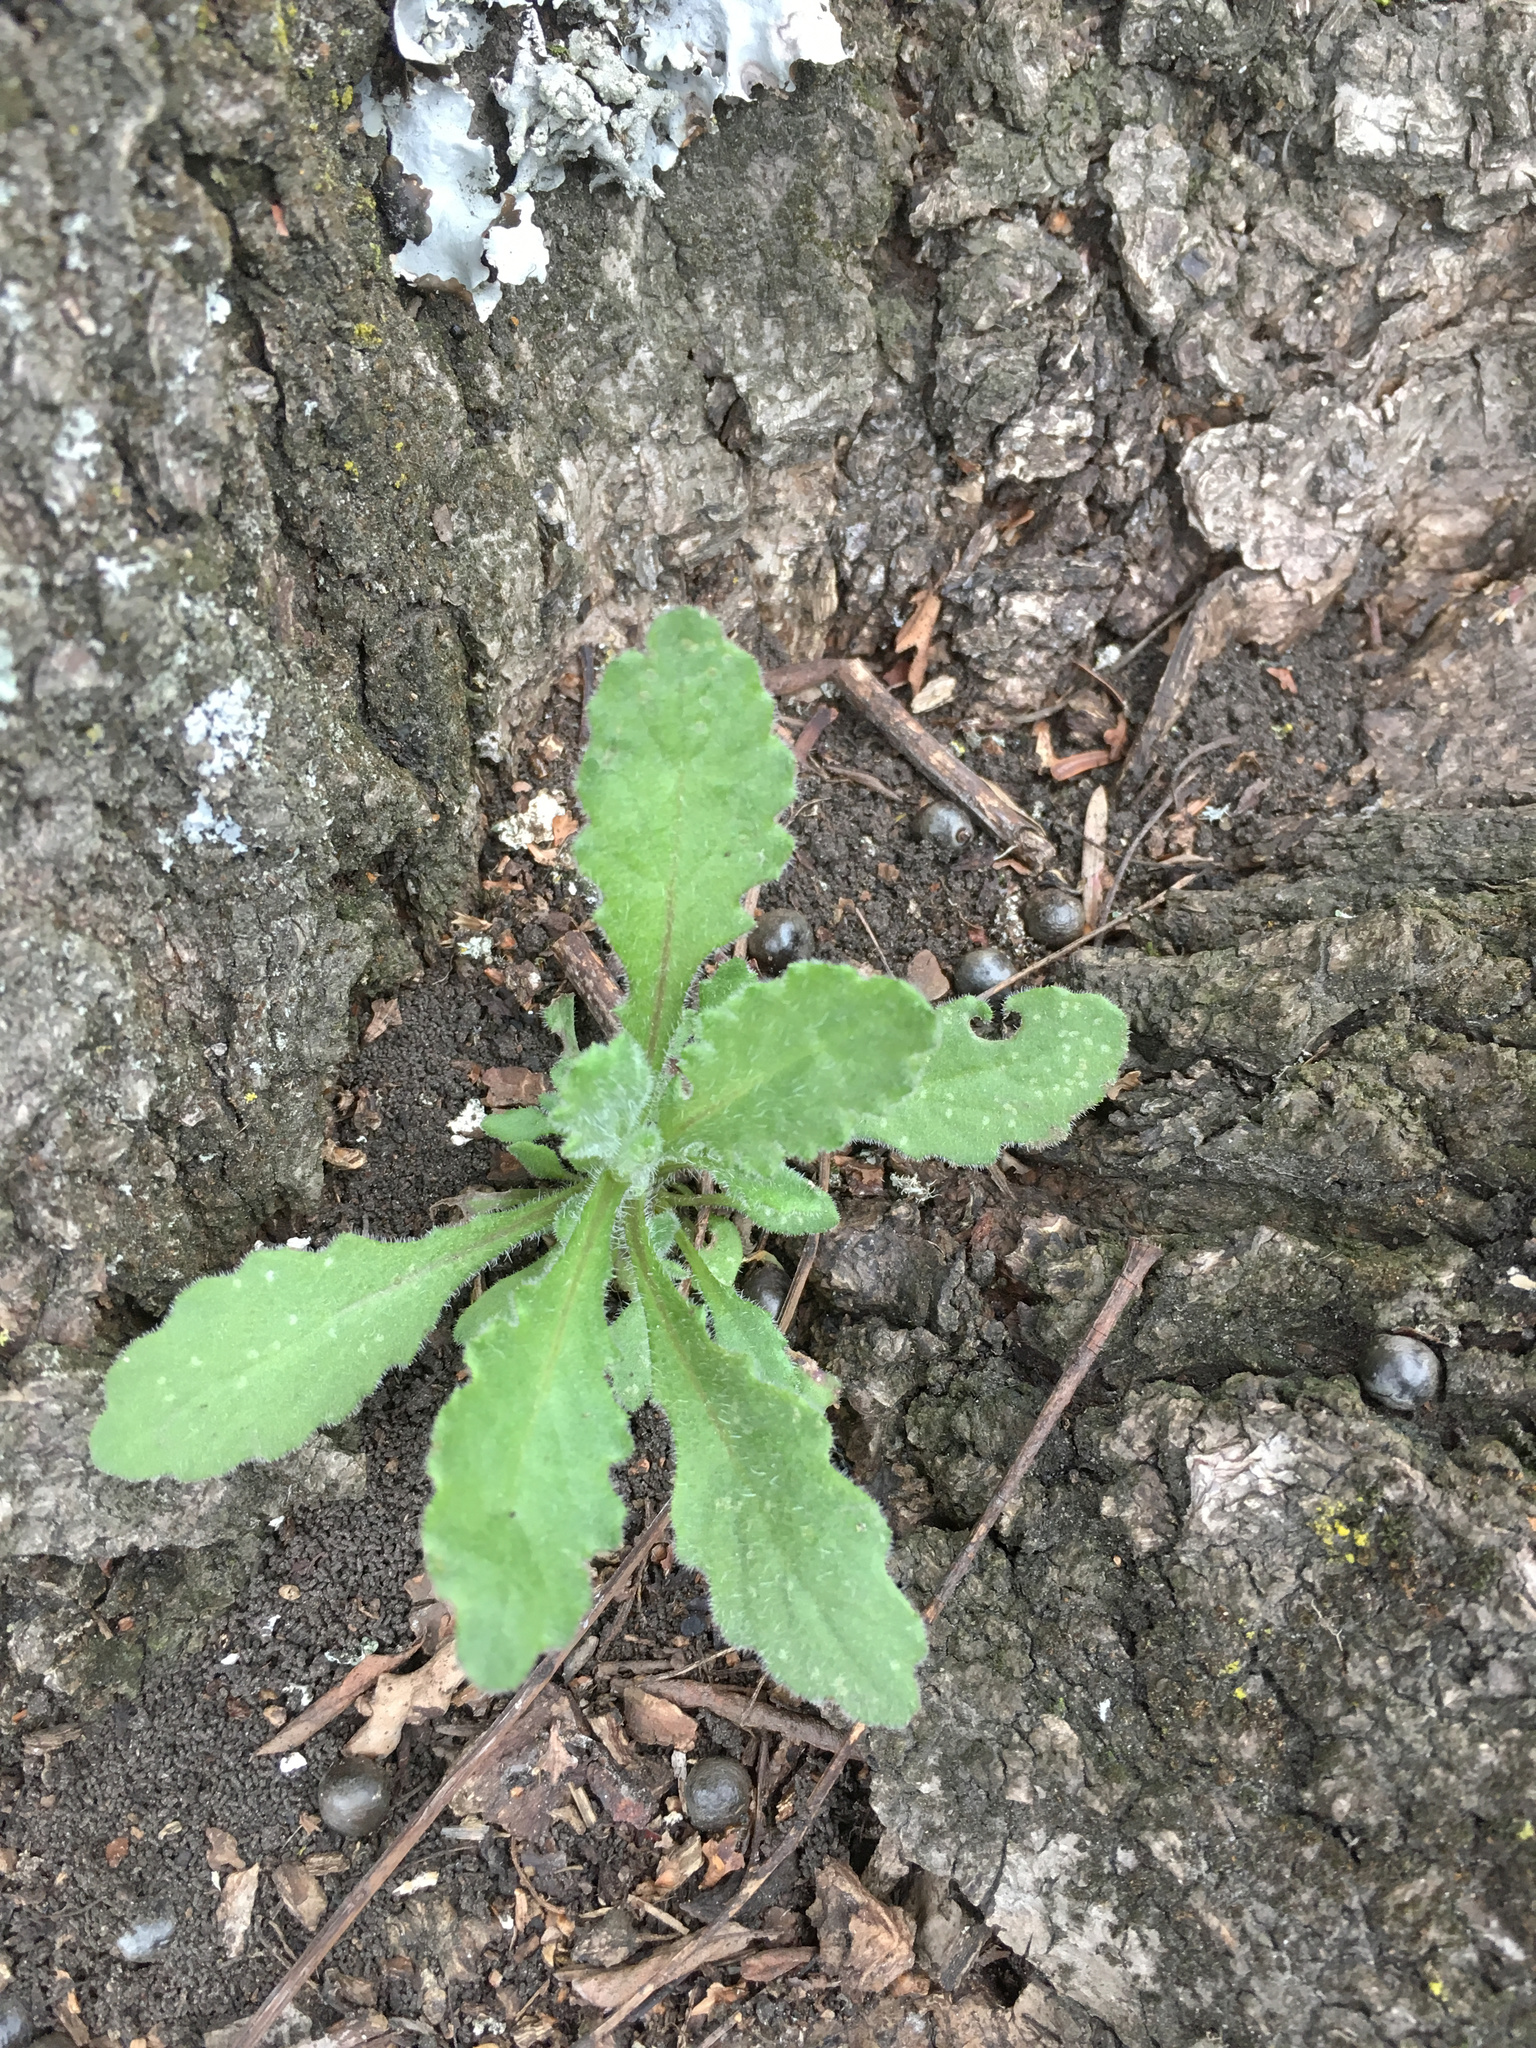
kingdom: Plantae
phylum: Tracheophyta
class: Magnoliopsida
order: Asterales
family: Asteraceae
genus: Senecio
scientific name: Senecio glomeratus
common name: Cutleaf burnweed
